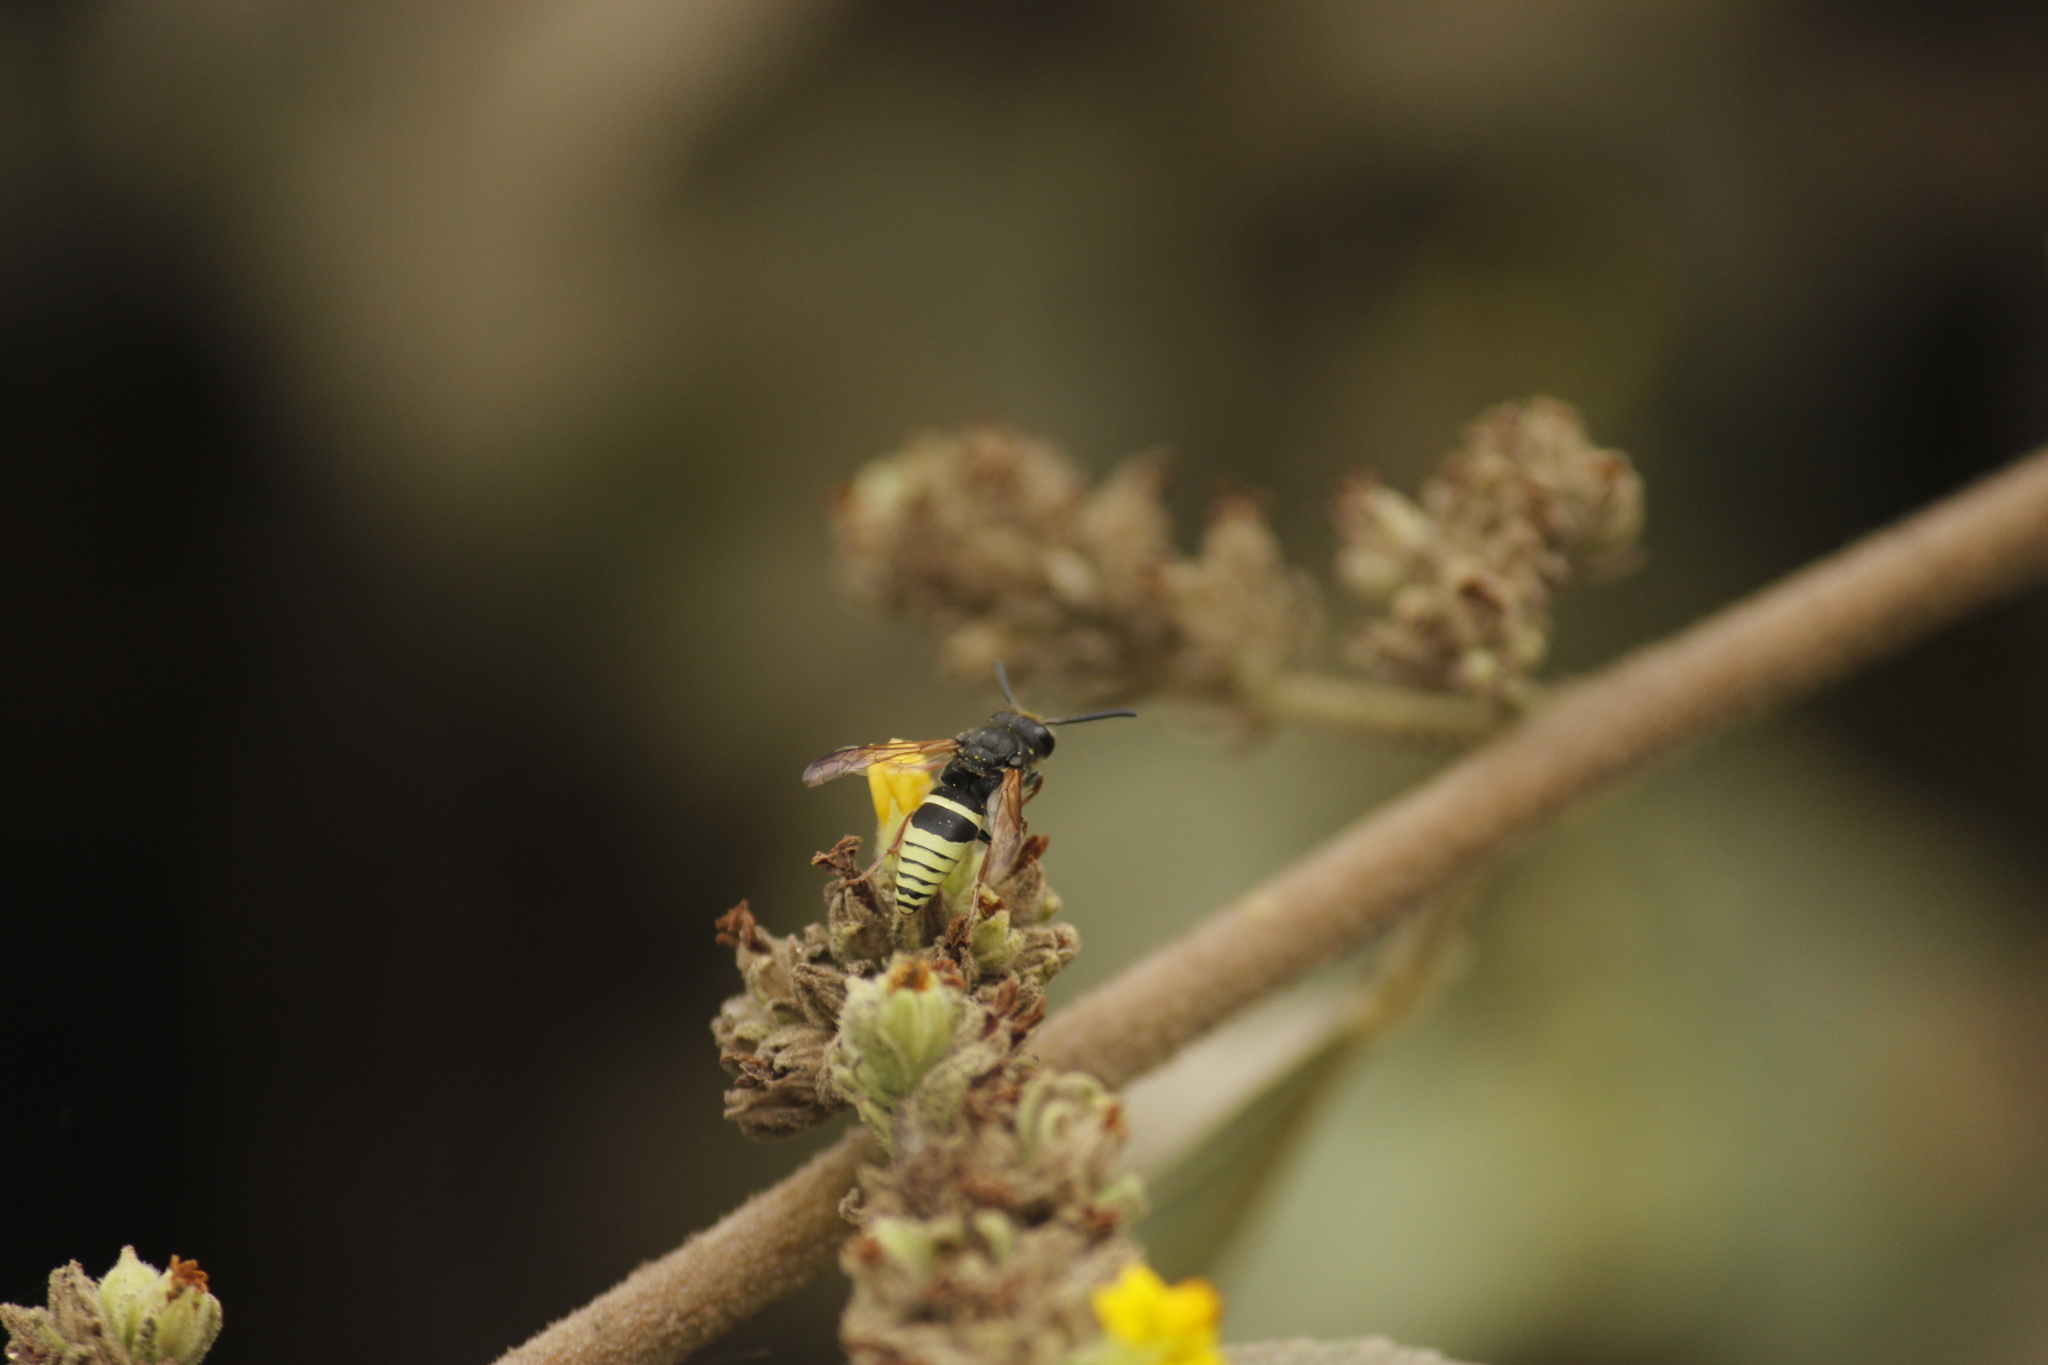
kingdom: Animalia
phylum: Arthropoda
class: Insecta
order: Hymenoptera
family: Eumenidae
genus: Pachodynerus
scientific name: Pachodynerus peruensis
